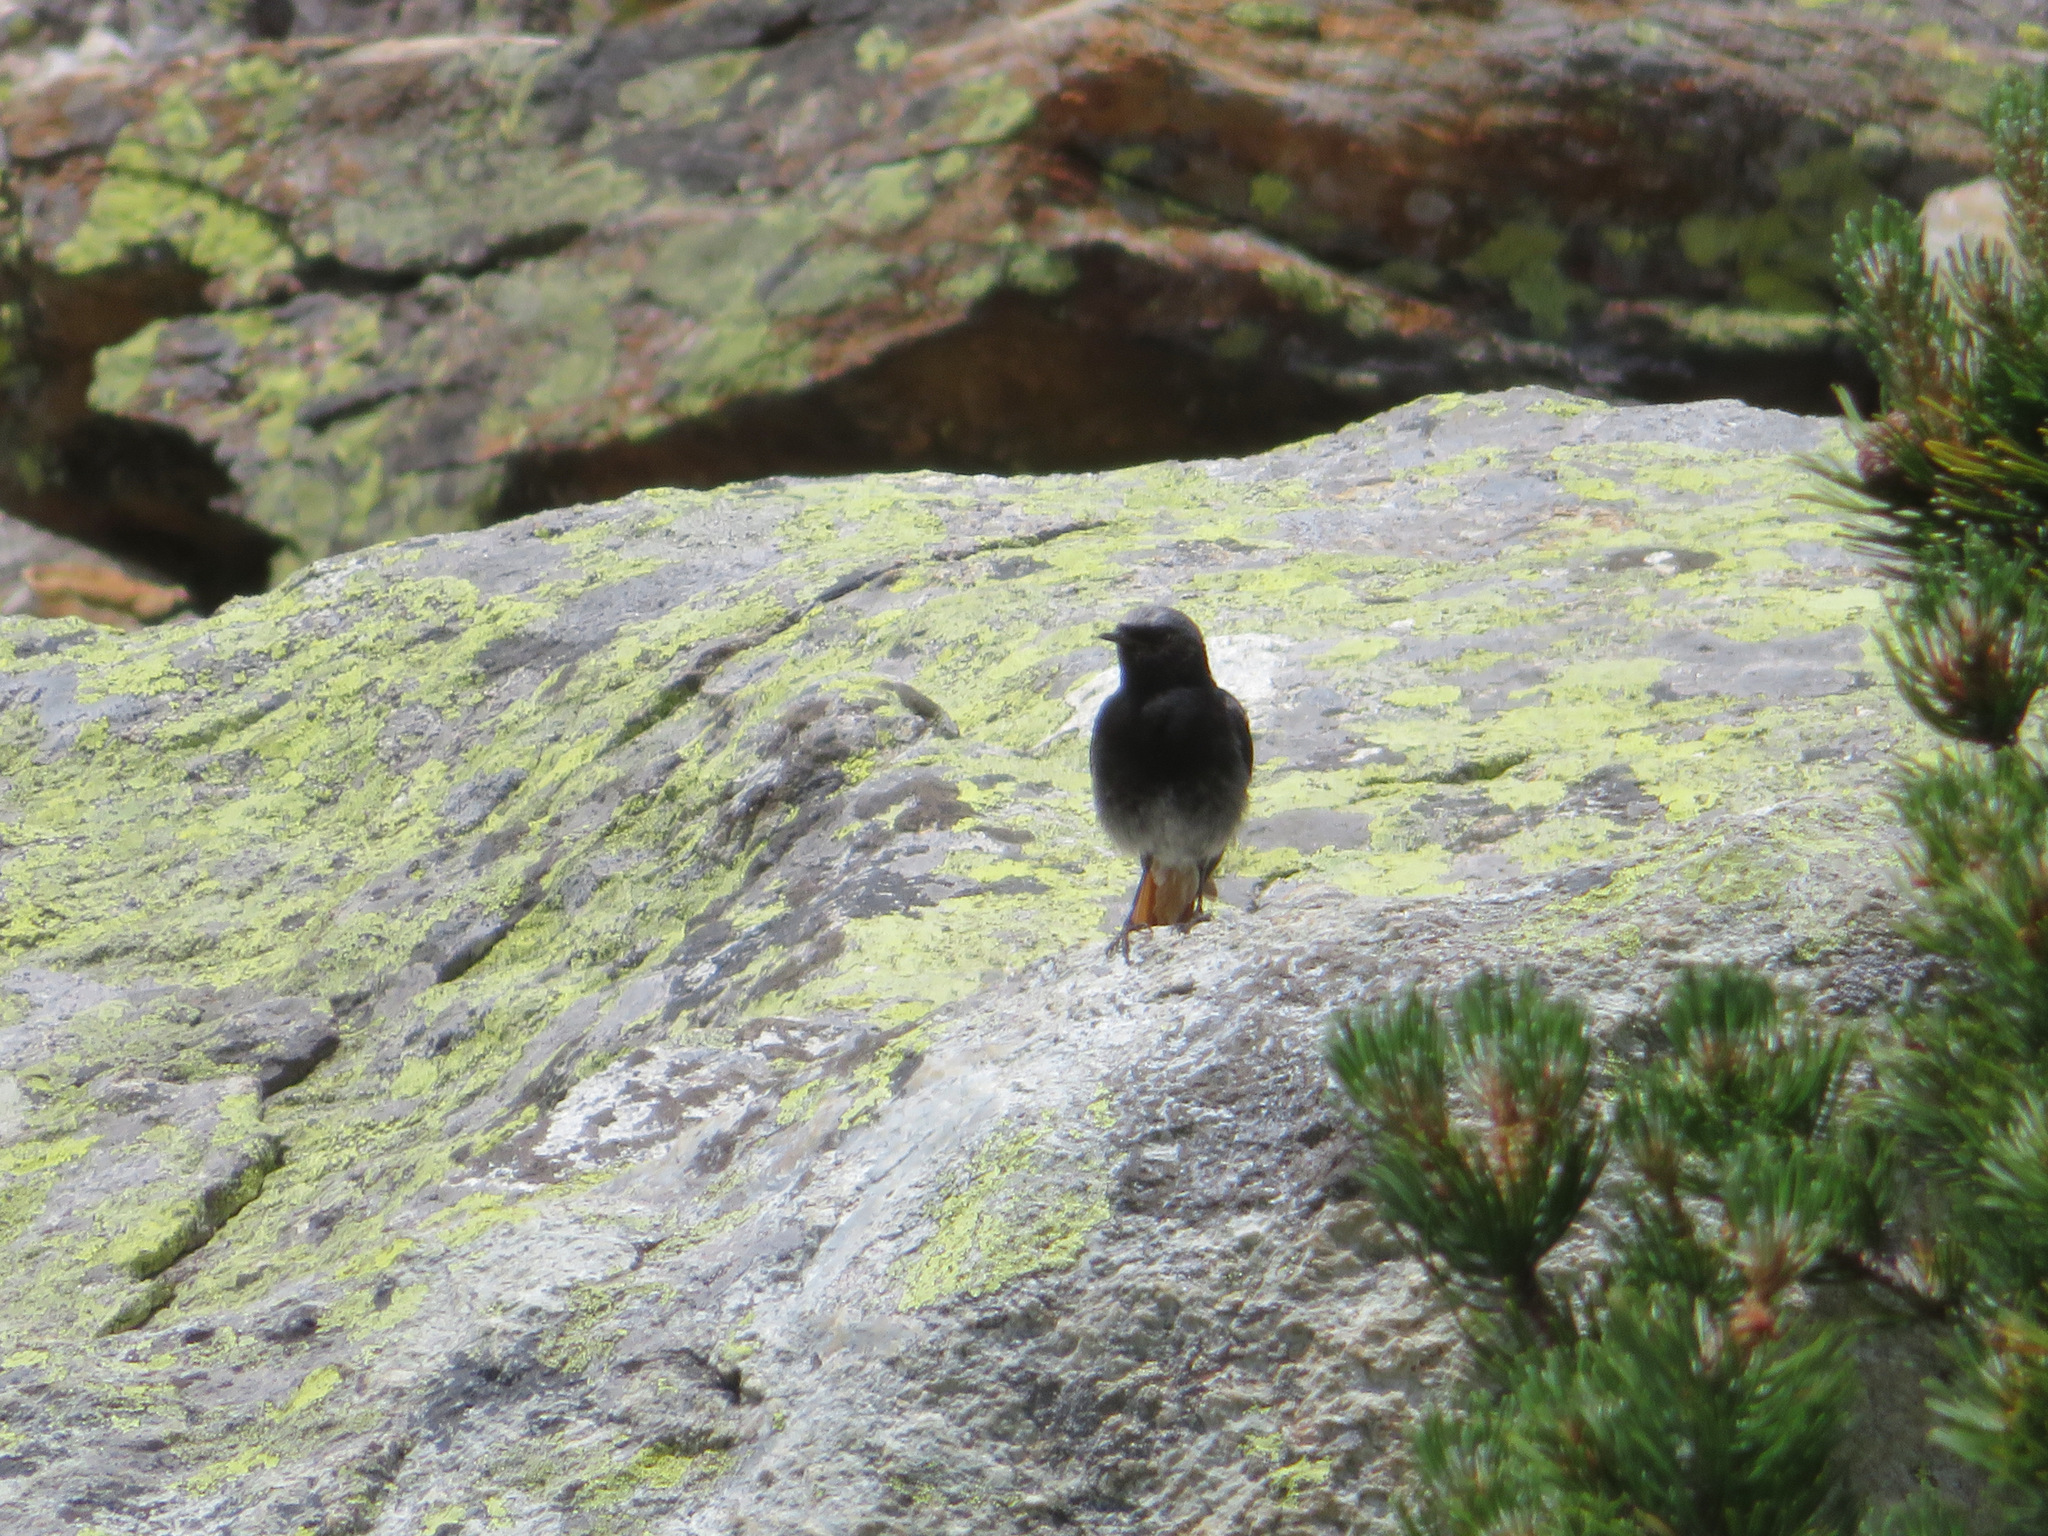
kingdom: Animalia
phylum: Chordata
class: Aves
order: Passeriformes
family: Muscicapidae
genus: Phoenicurus
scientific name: Phoenicurus ochruros
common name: Black redstart
